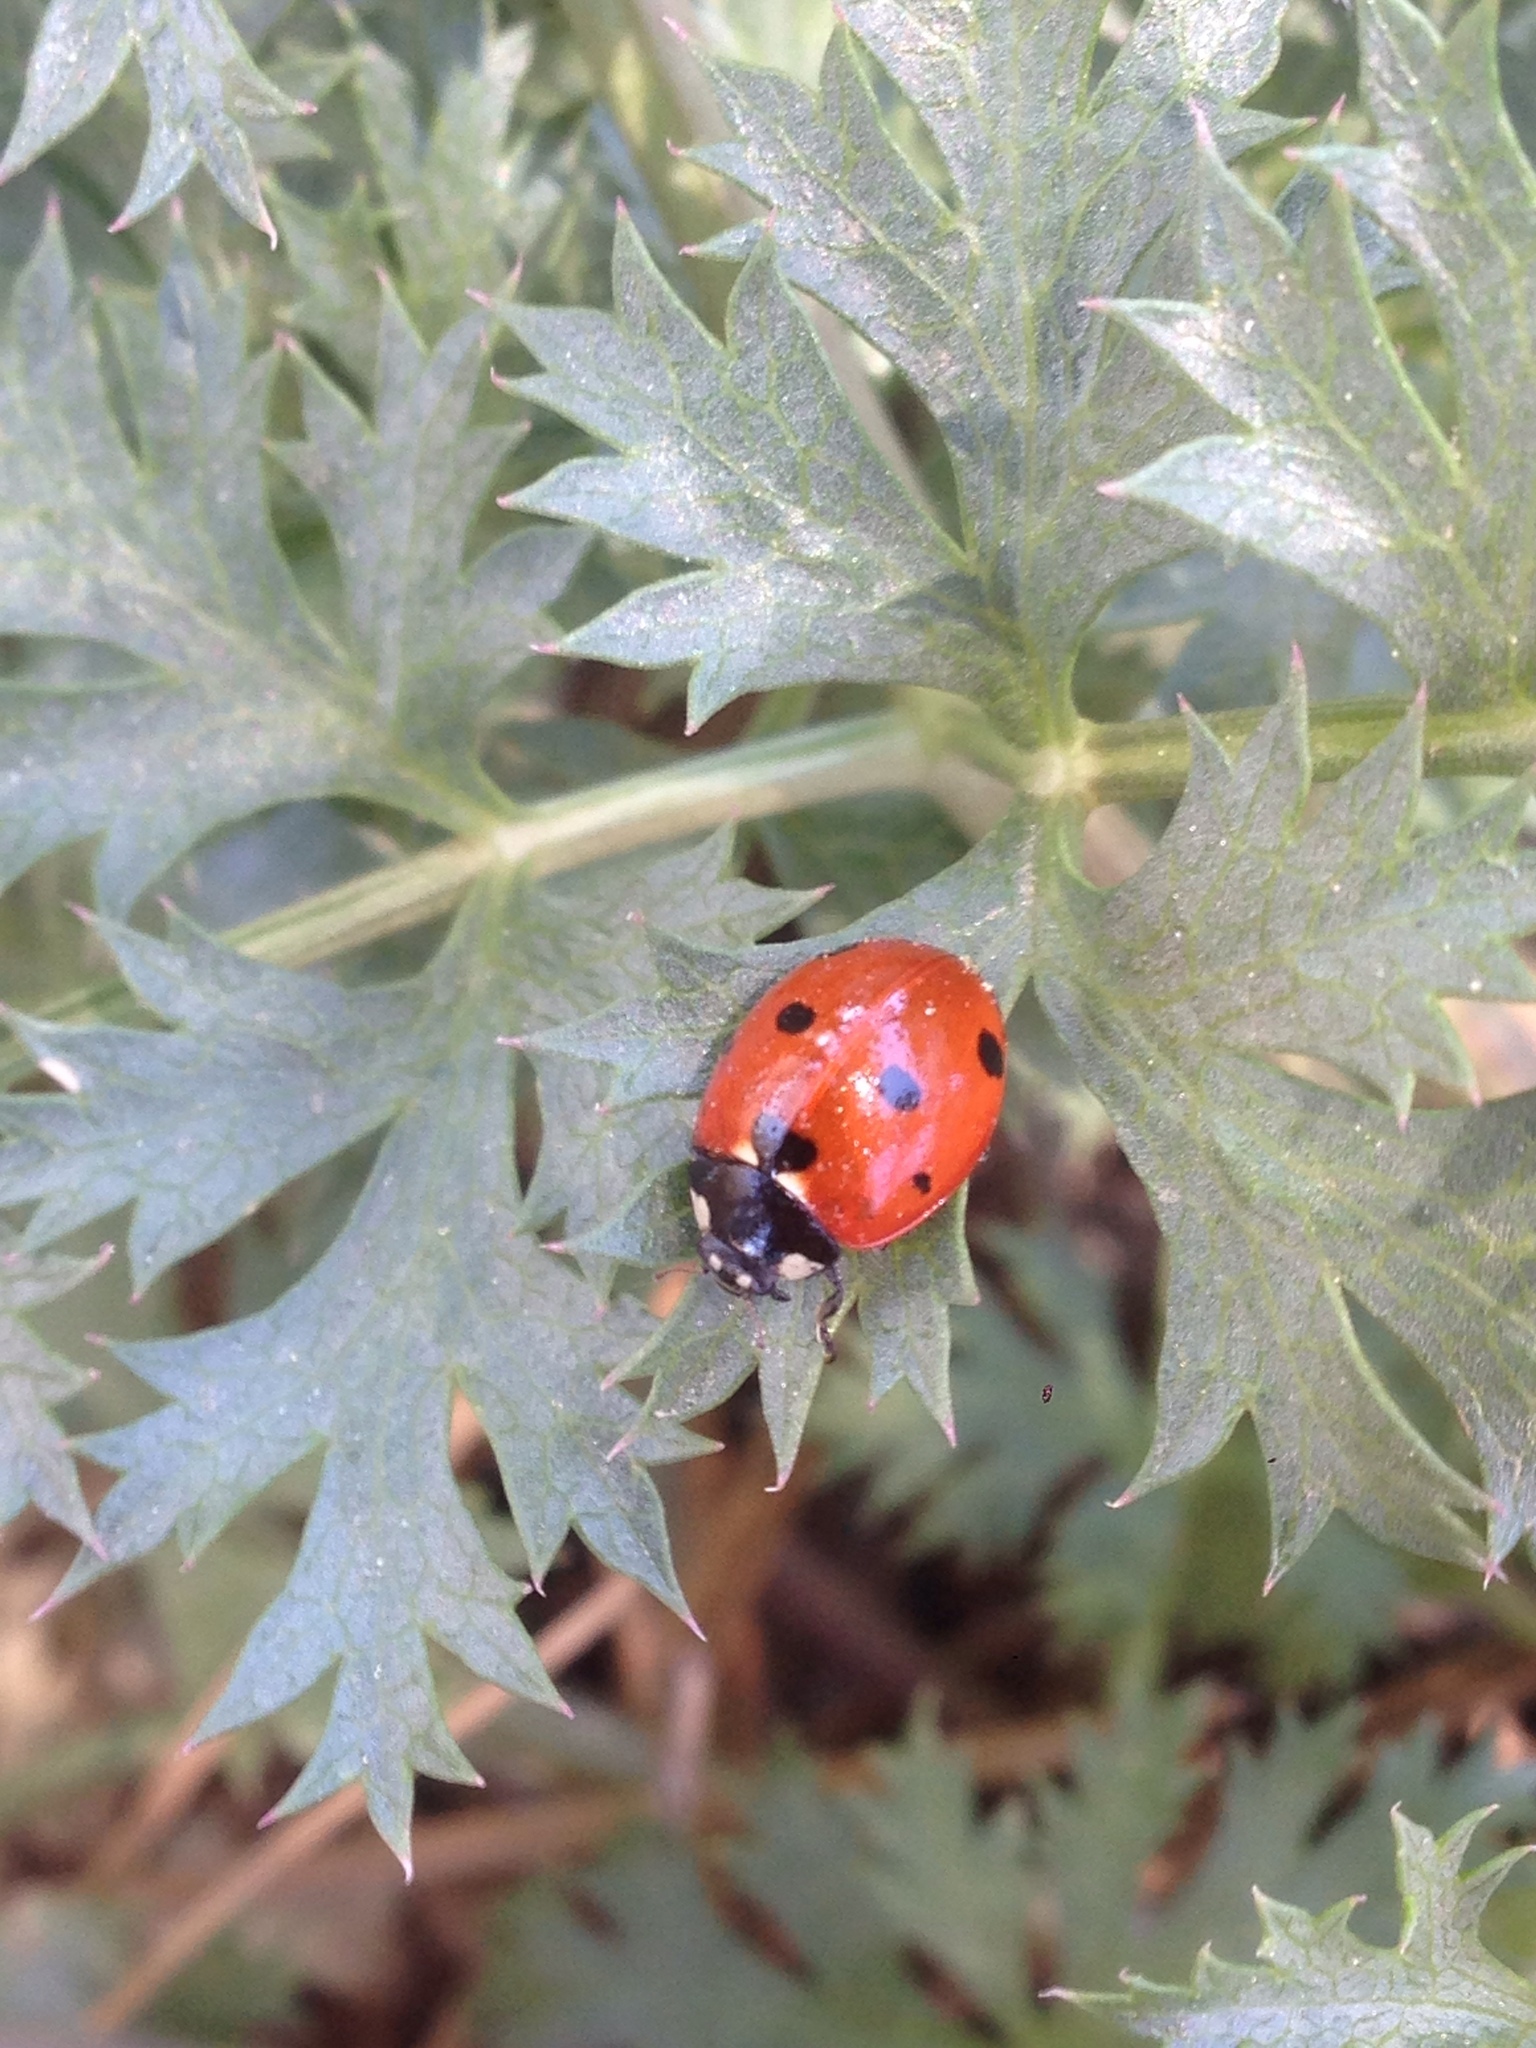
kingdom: Animalia
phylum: Arthropoda
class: Insecta
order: Coleoptera
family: Coccinellidae
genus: Coccinella
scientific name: Coccinella septempunctata
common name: Sevenspotted lady beetle
